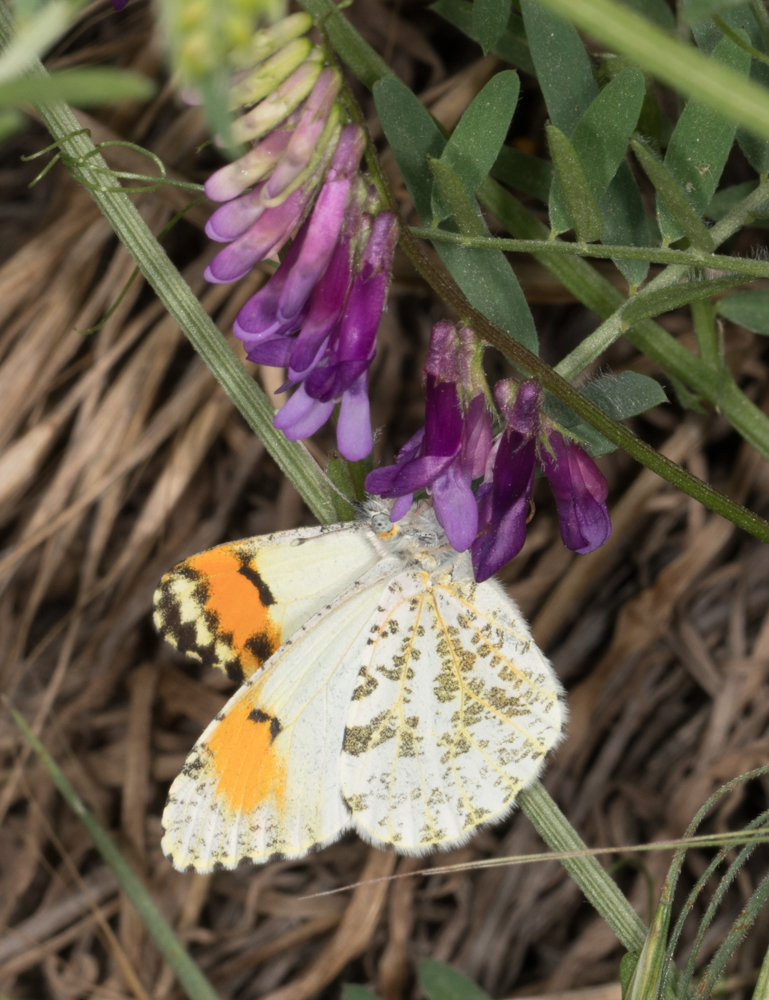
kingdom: Animalia
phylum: Arthropoda
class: Insecta
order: Lepidoptera
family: Pieridae
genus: Anthocharis
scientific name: Anthocharis sara
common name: Sara's orangetip
